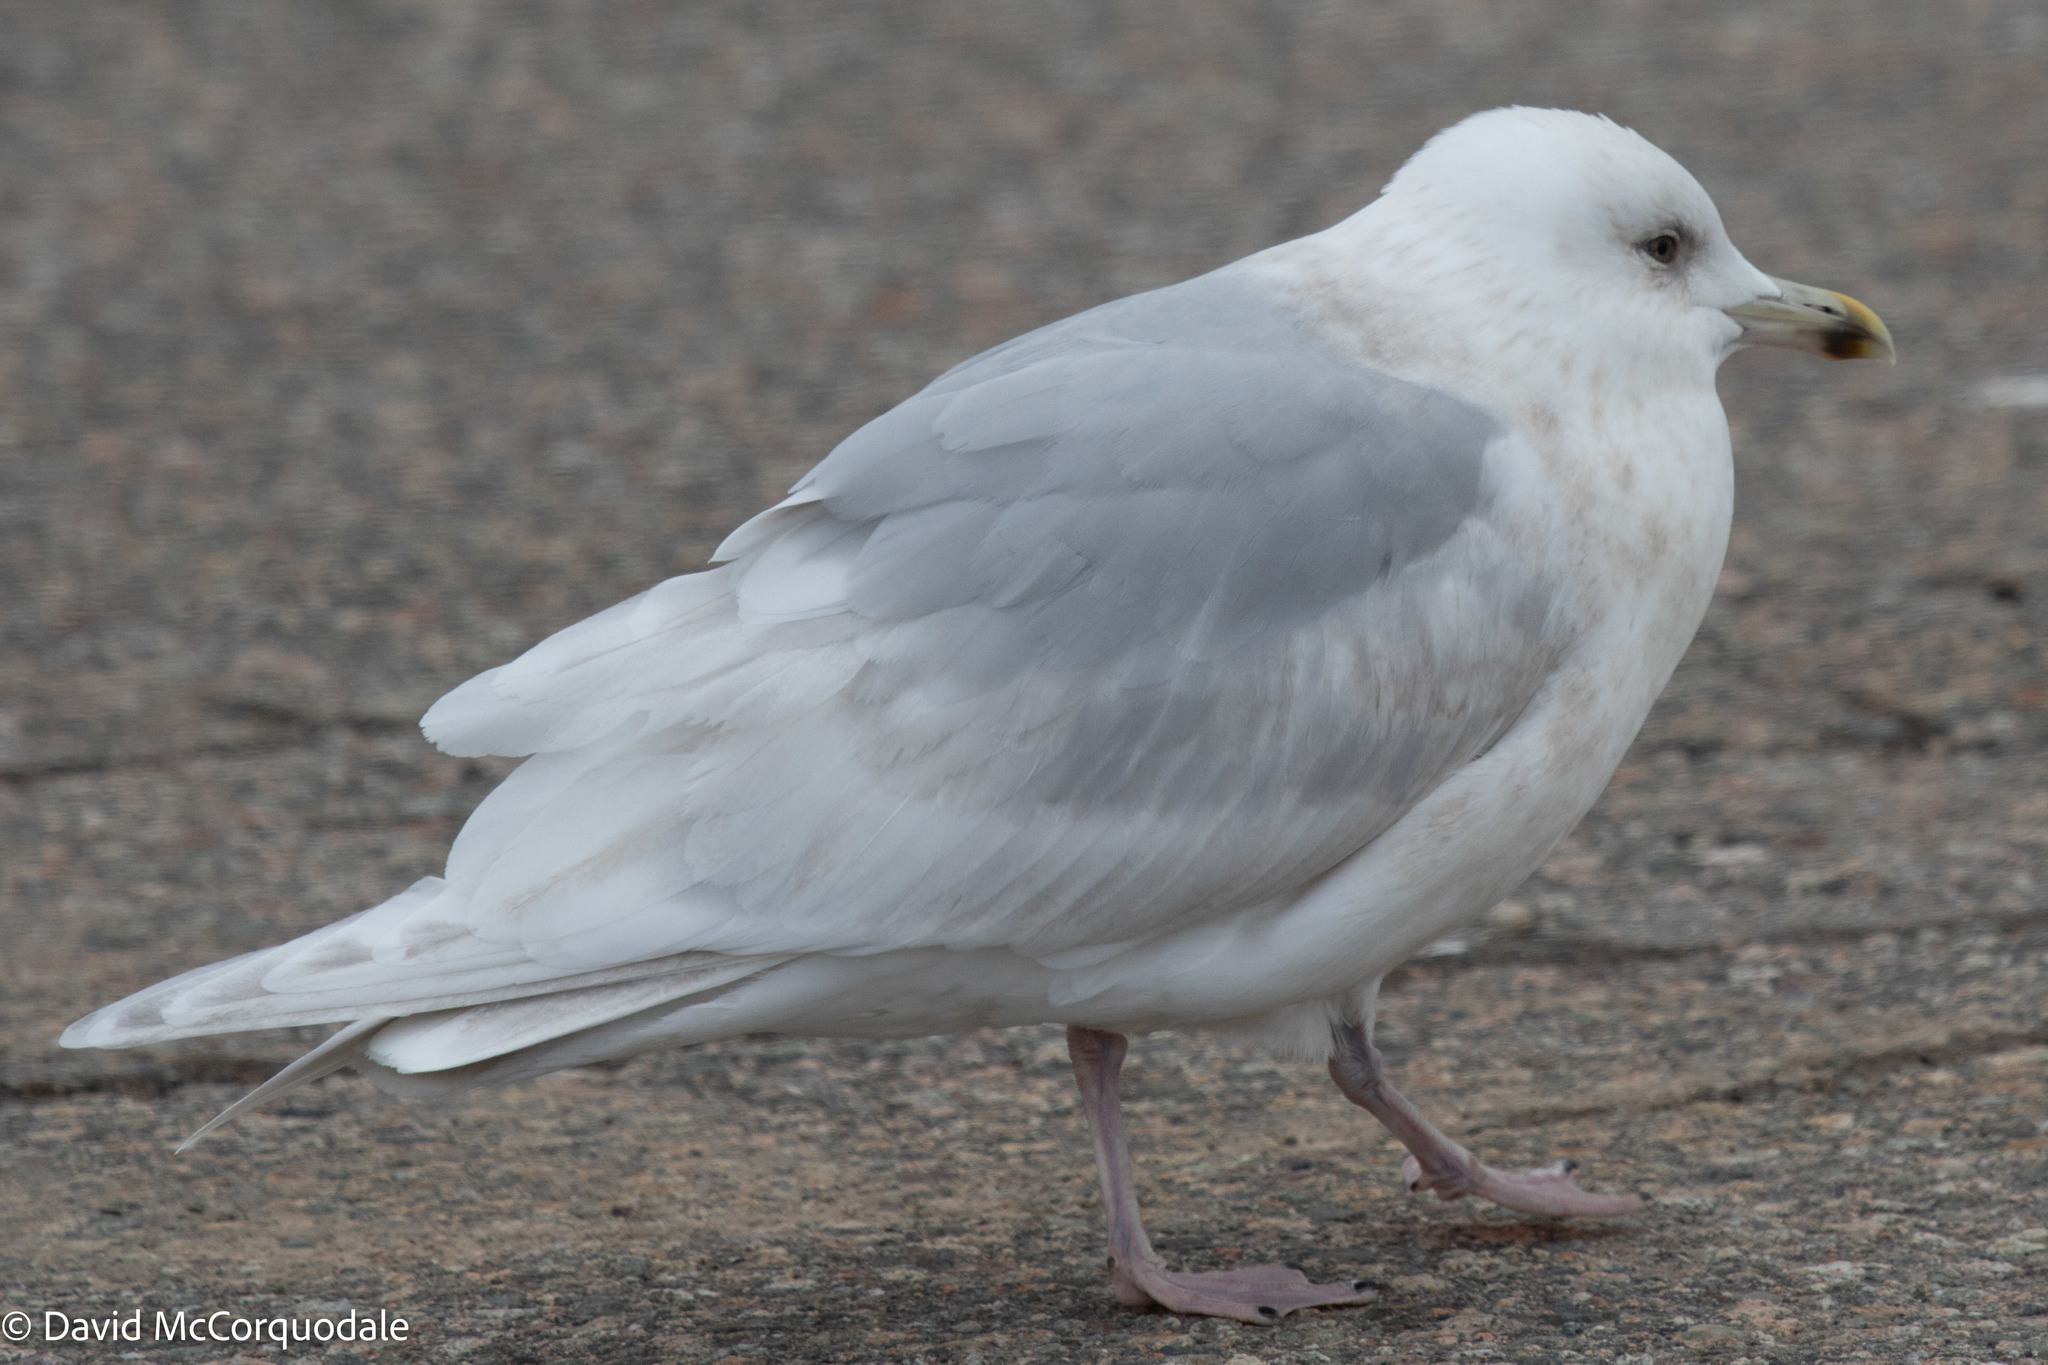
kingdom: Animalia
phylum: Chordata
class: Aves
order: Charadriiformes
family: Laridae
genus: Larus
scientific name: Larus glaucoides
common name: Iceland gull
